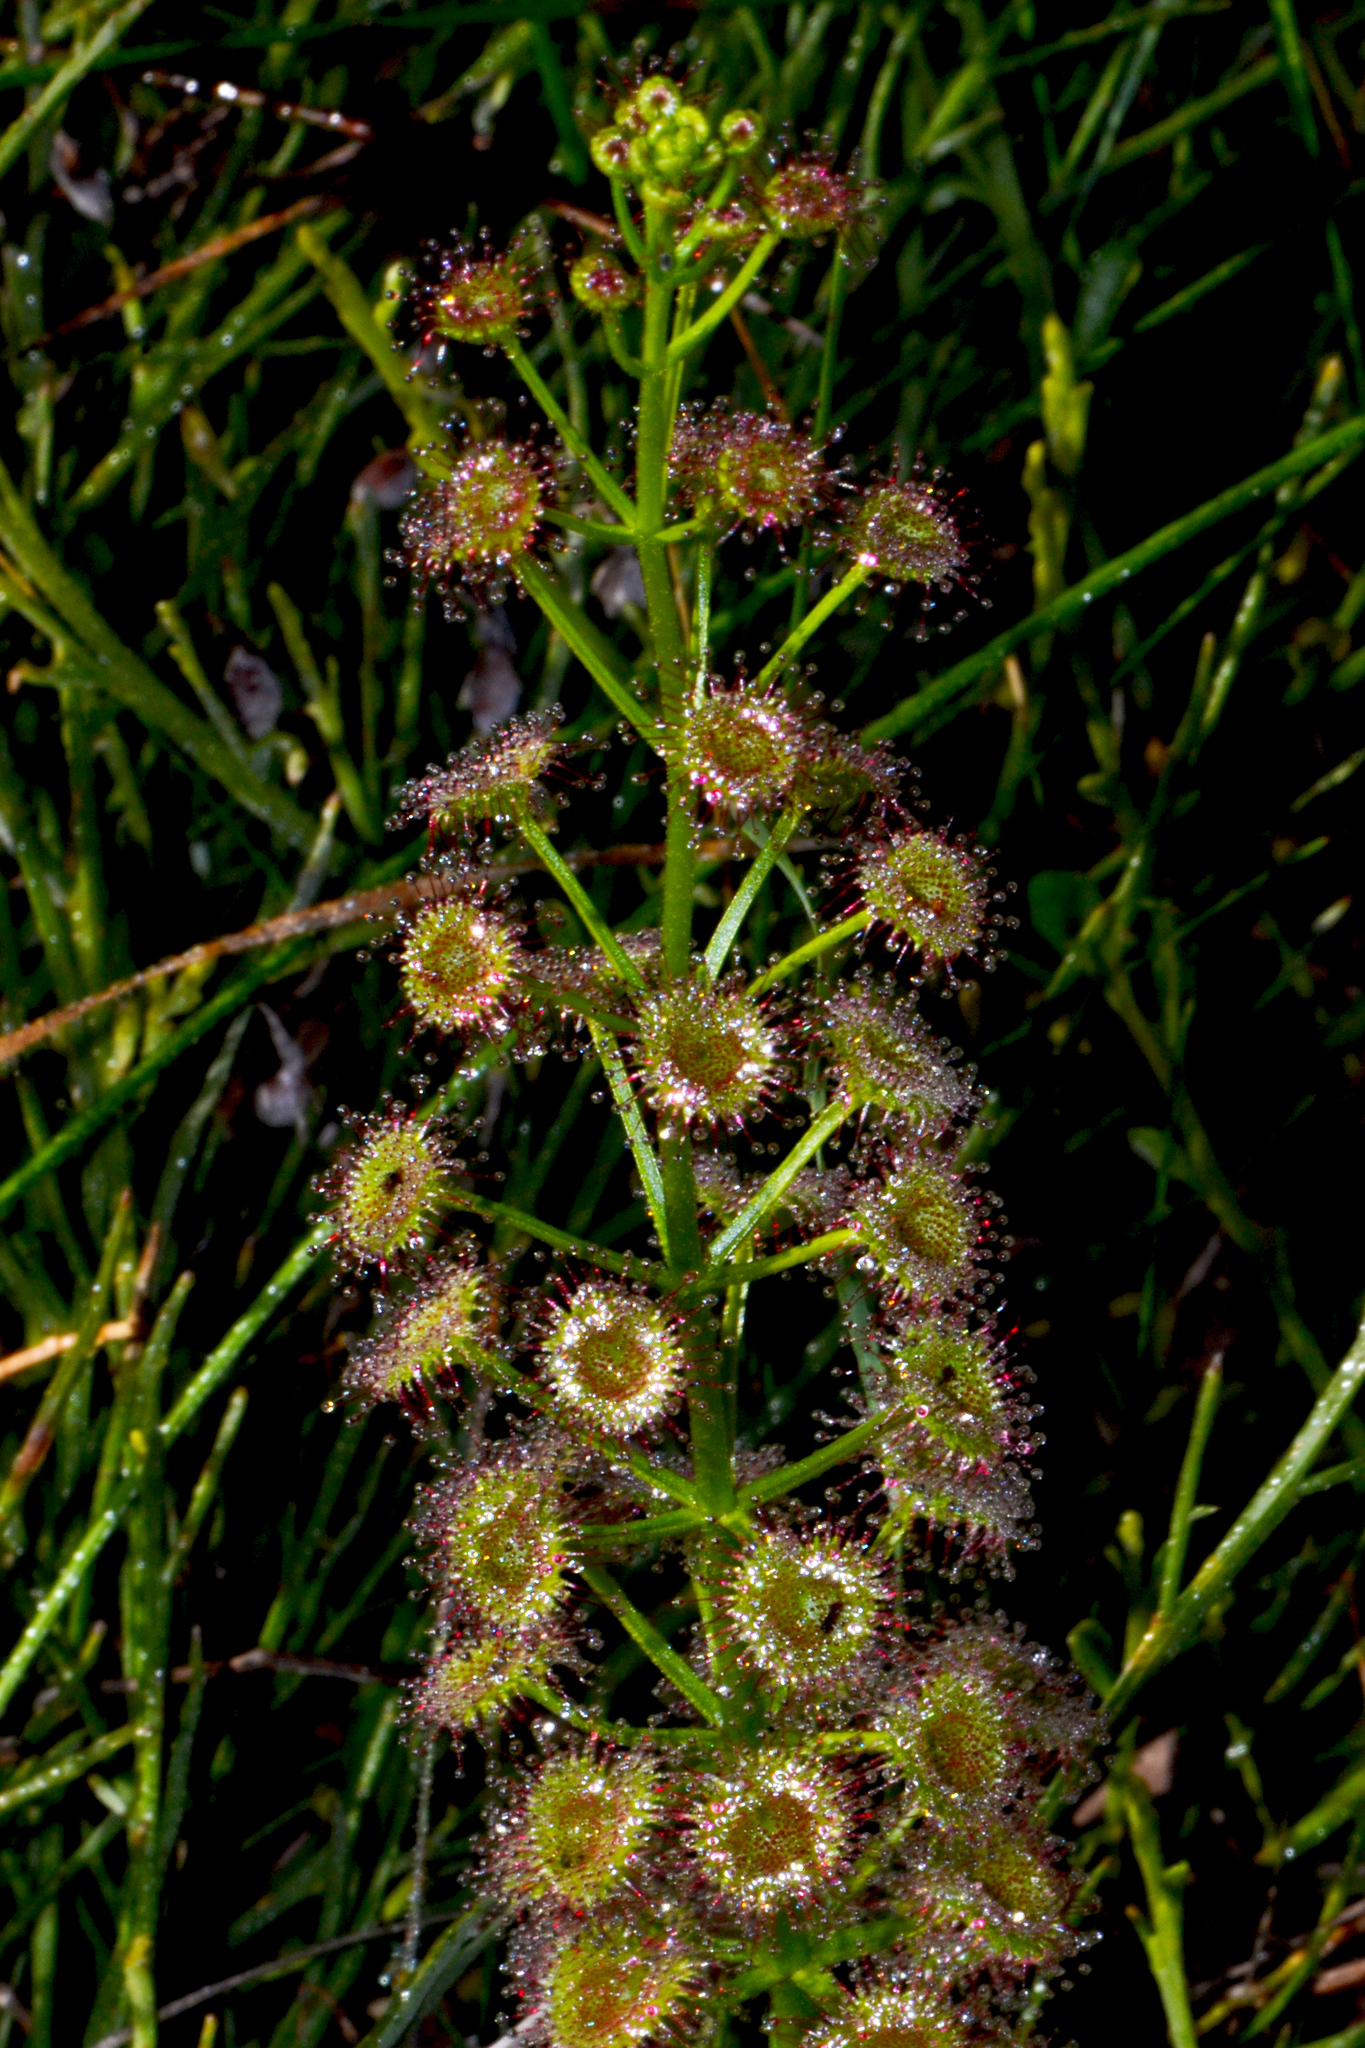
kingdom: Plantae
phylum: Tracheophyta
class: Magnoliopsida
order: Caryophyllales
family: Droseraceae
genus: Drosera
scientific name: Drosera stolonifera
